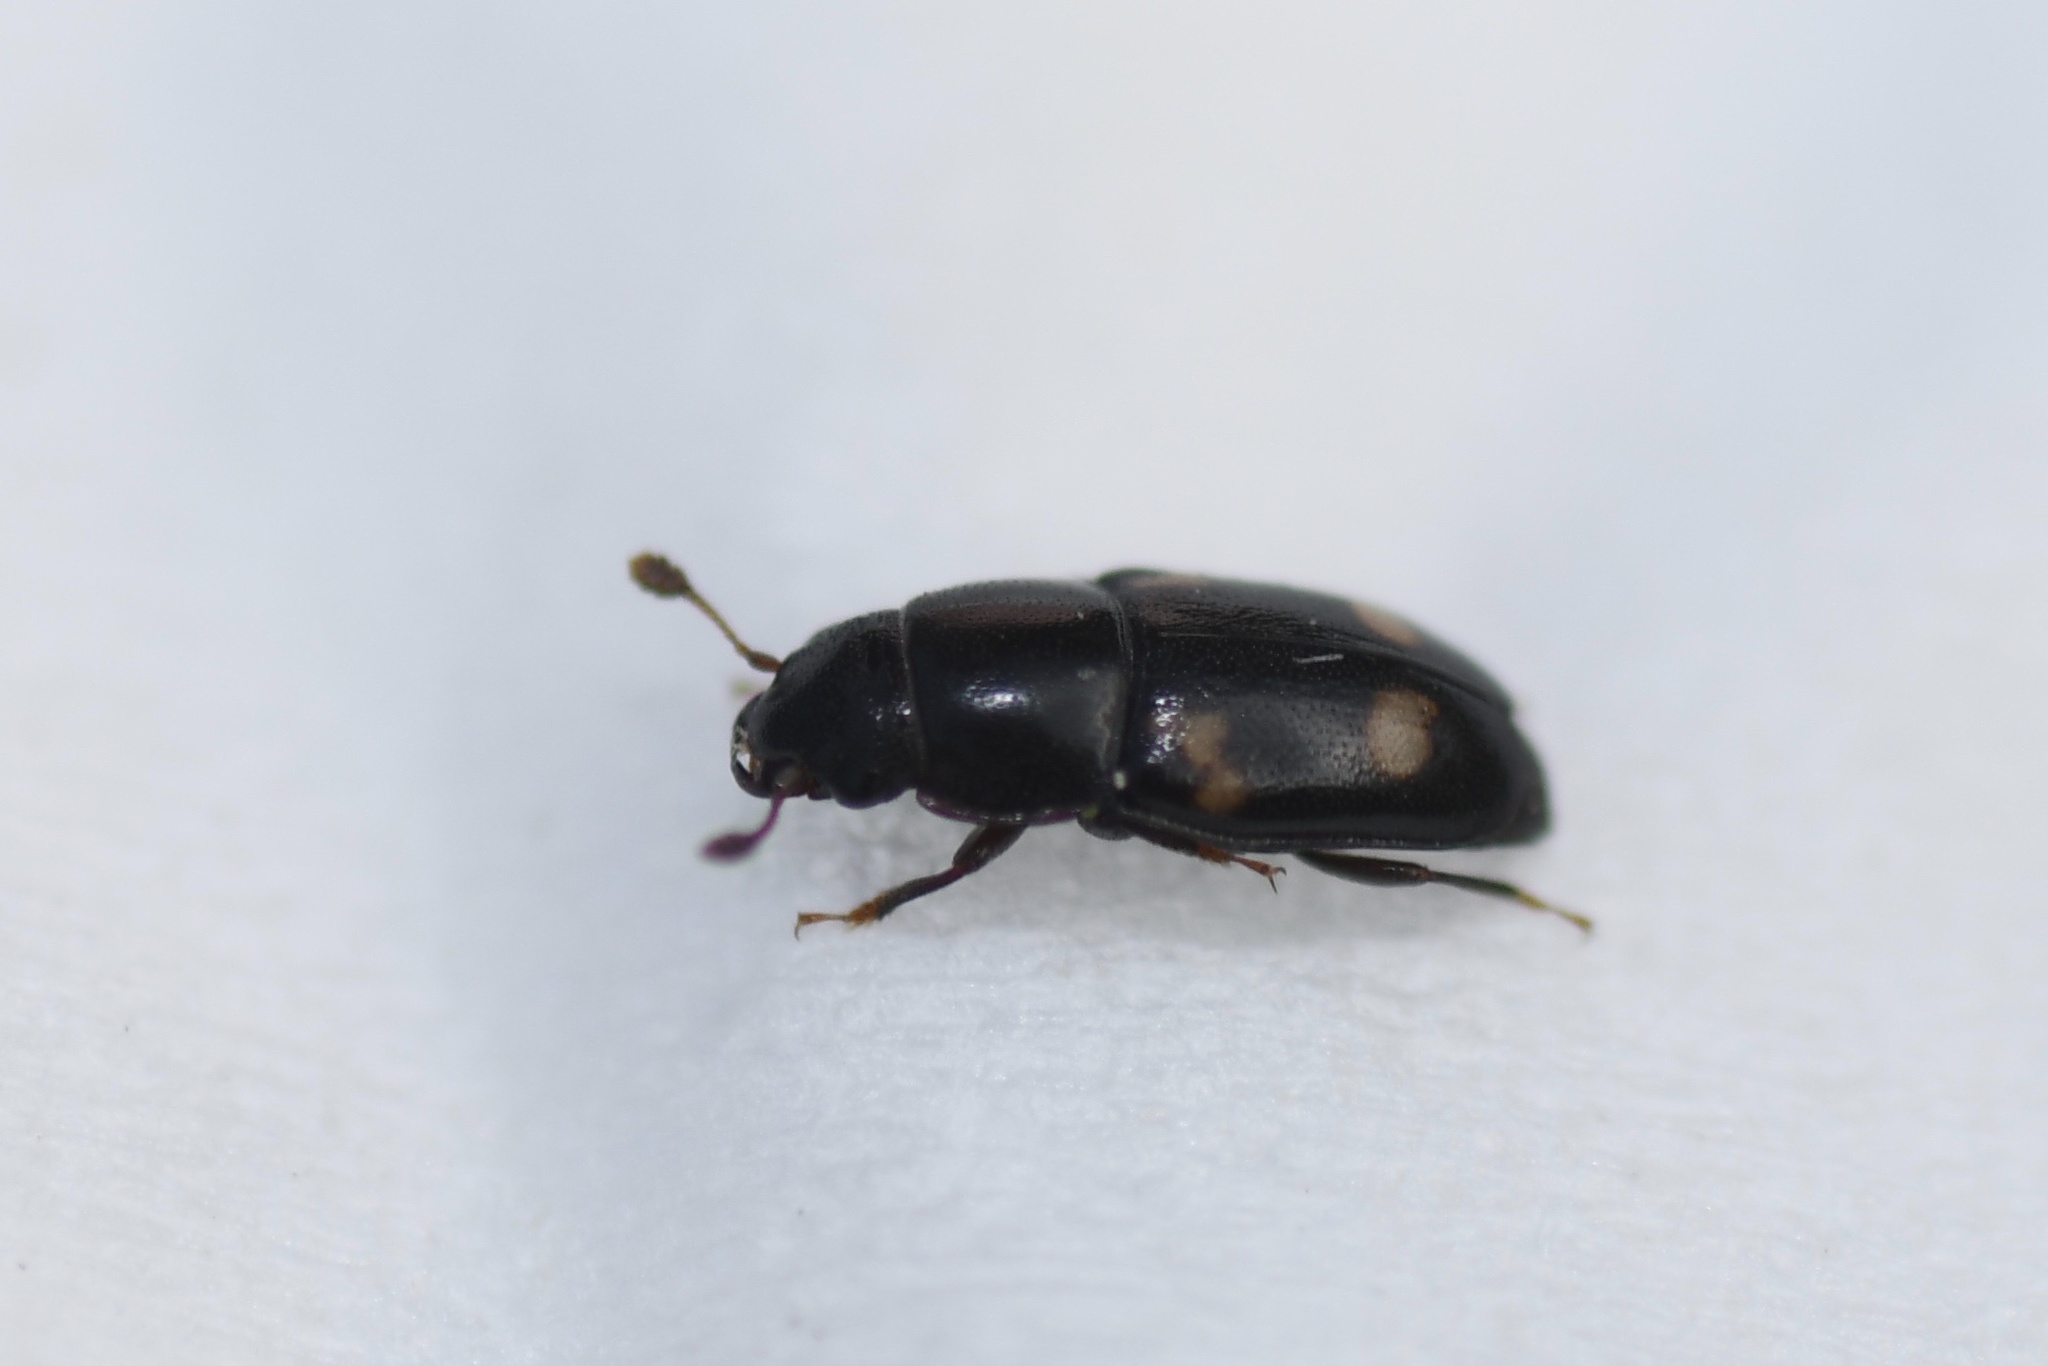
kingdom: Animalia
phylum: Arthropoda
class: Insecta
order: Coleoptera
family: Nitidulidae
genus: Glischrochilus
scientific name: Glischrochilus quadrisignatus
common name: Picnic beetle
